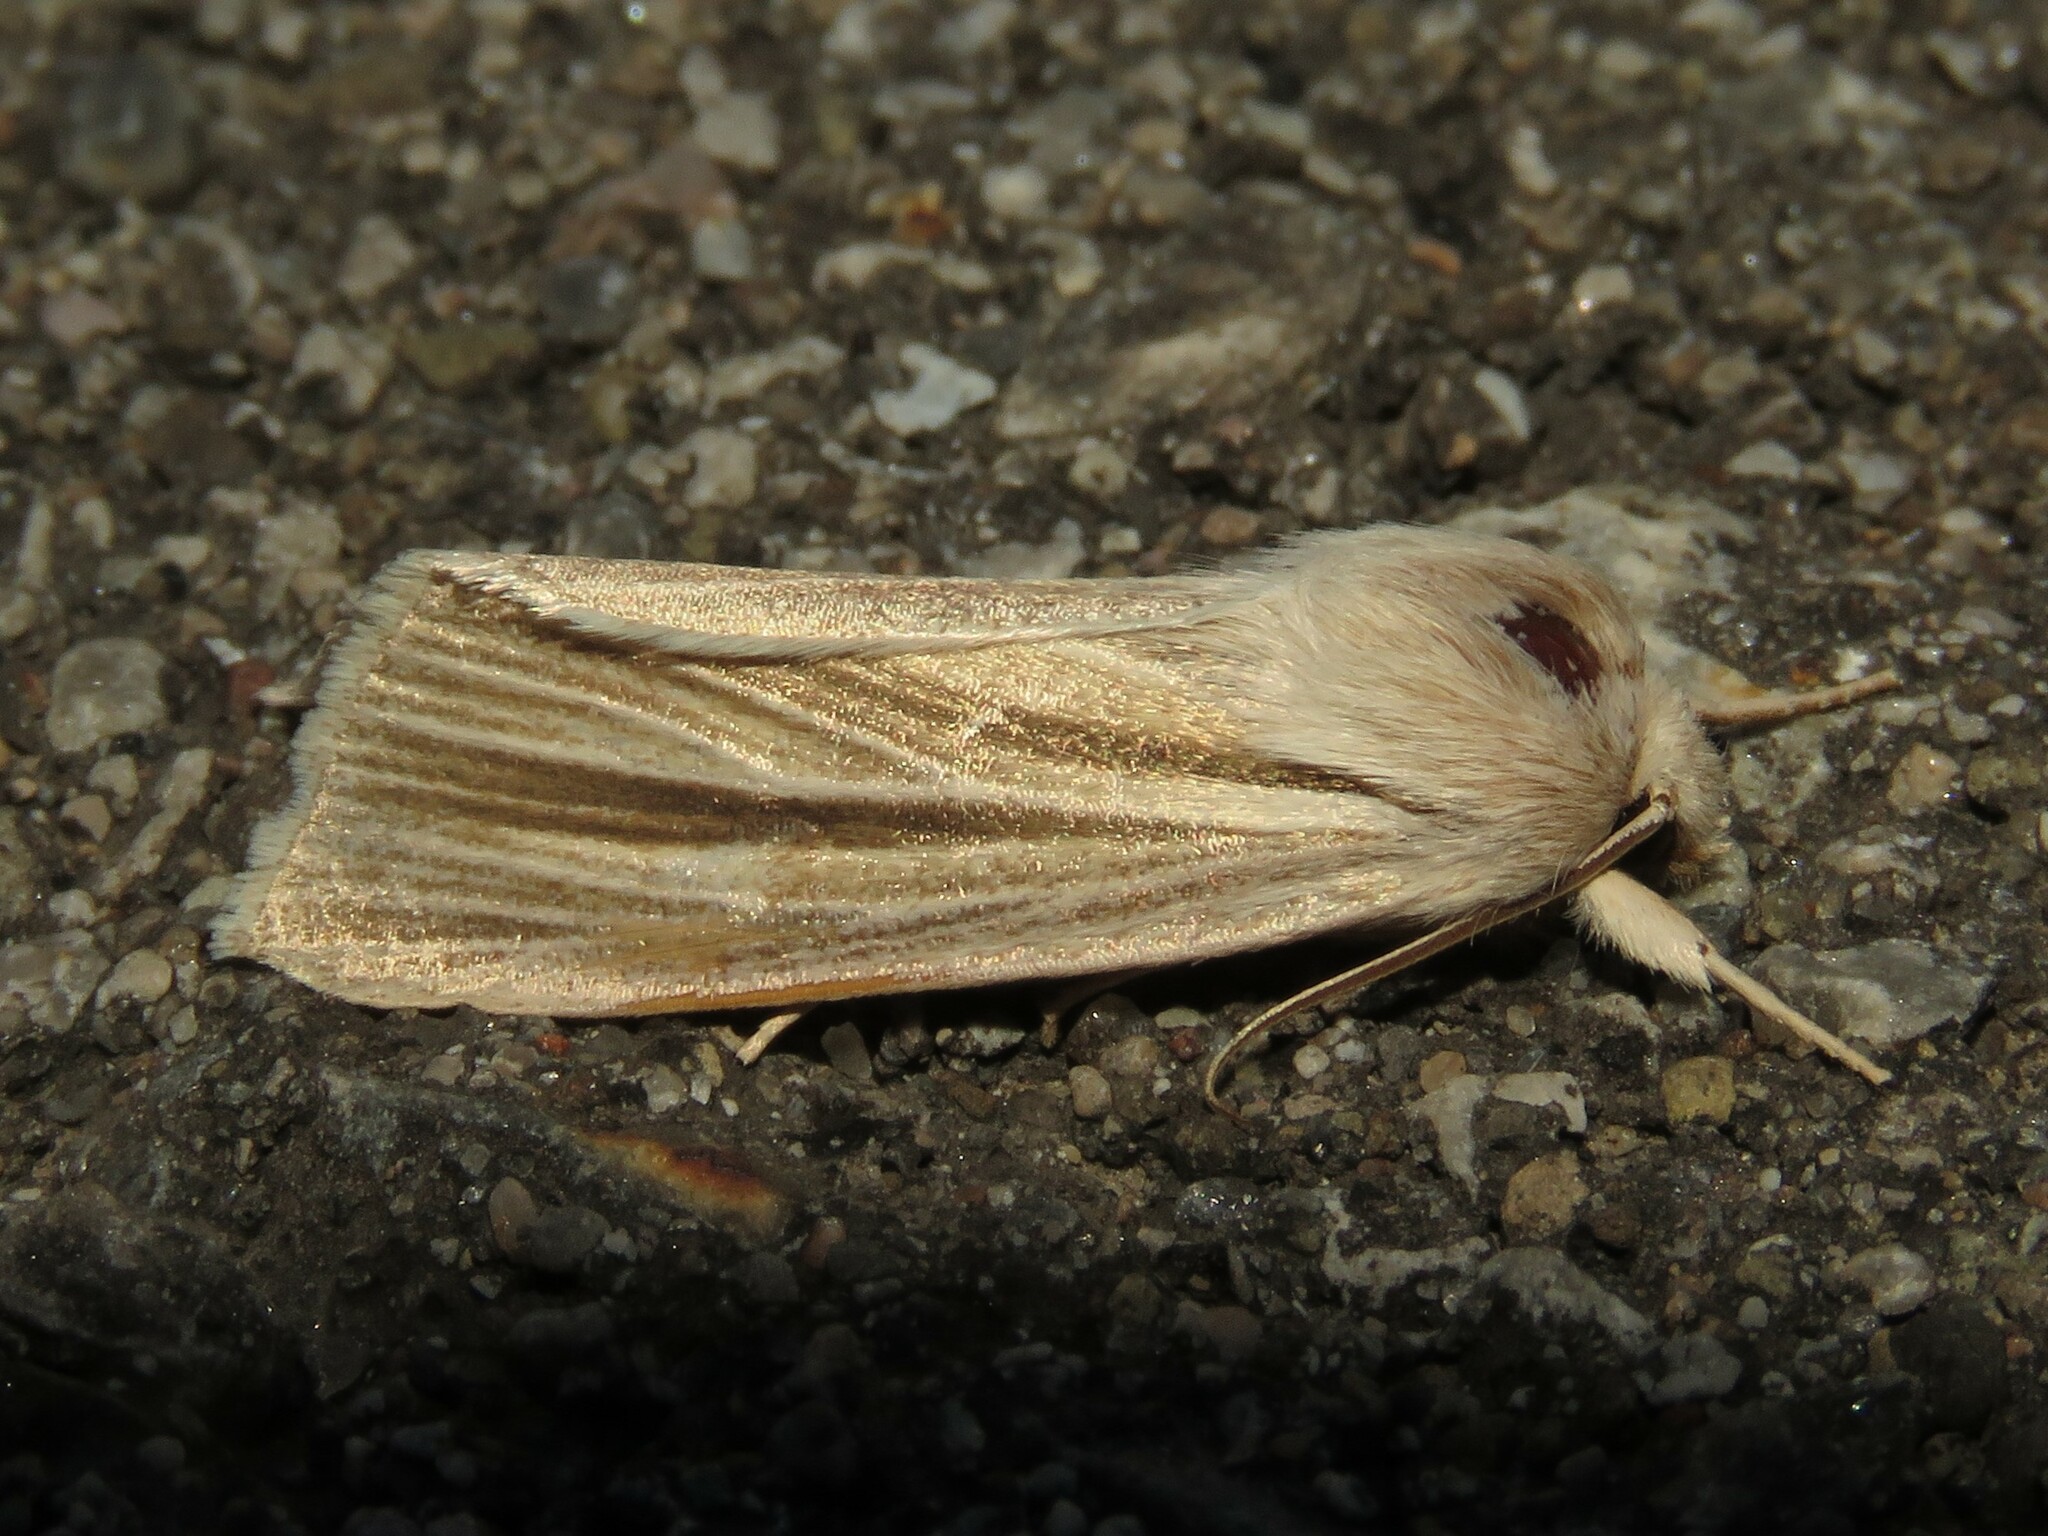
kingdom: Animalia
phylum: Arthropoda
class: Insecta
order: Lepidoptera
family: Noctuidae
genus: Acronicta
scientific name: Acronicta insularis
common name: Henry's marsh moth
